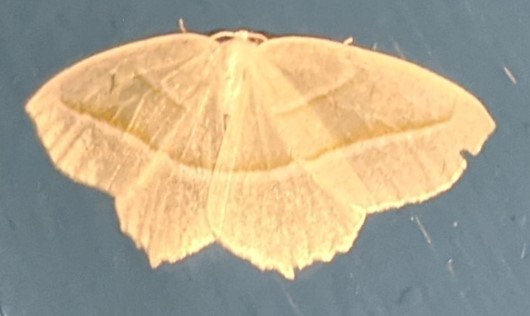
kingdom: Animalia
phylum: Arthropoda
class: Insecta
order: Lepidoptera
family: Geometridae
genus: Campaea
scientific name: Campaea perlata
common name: Fringed looper
